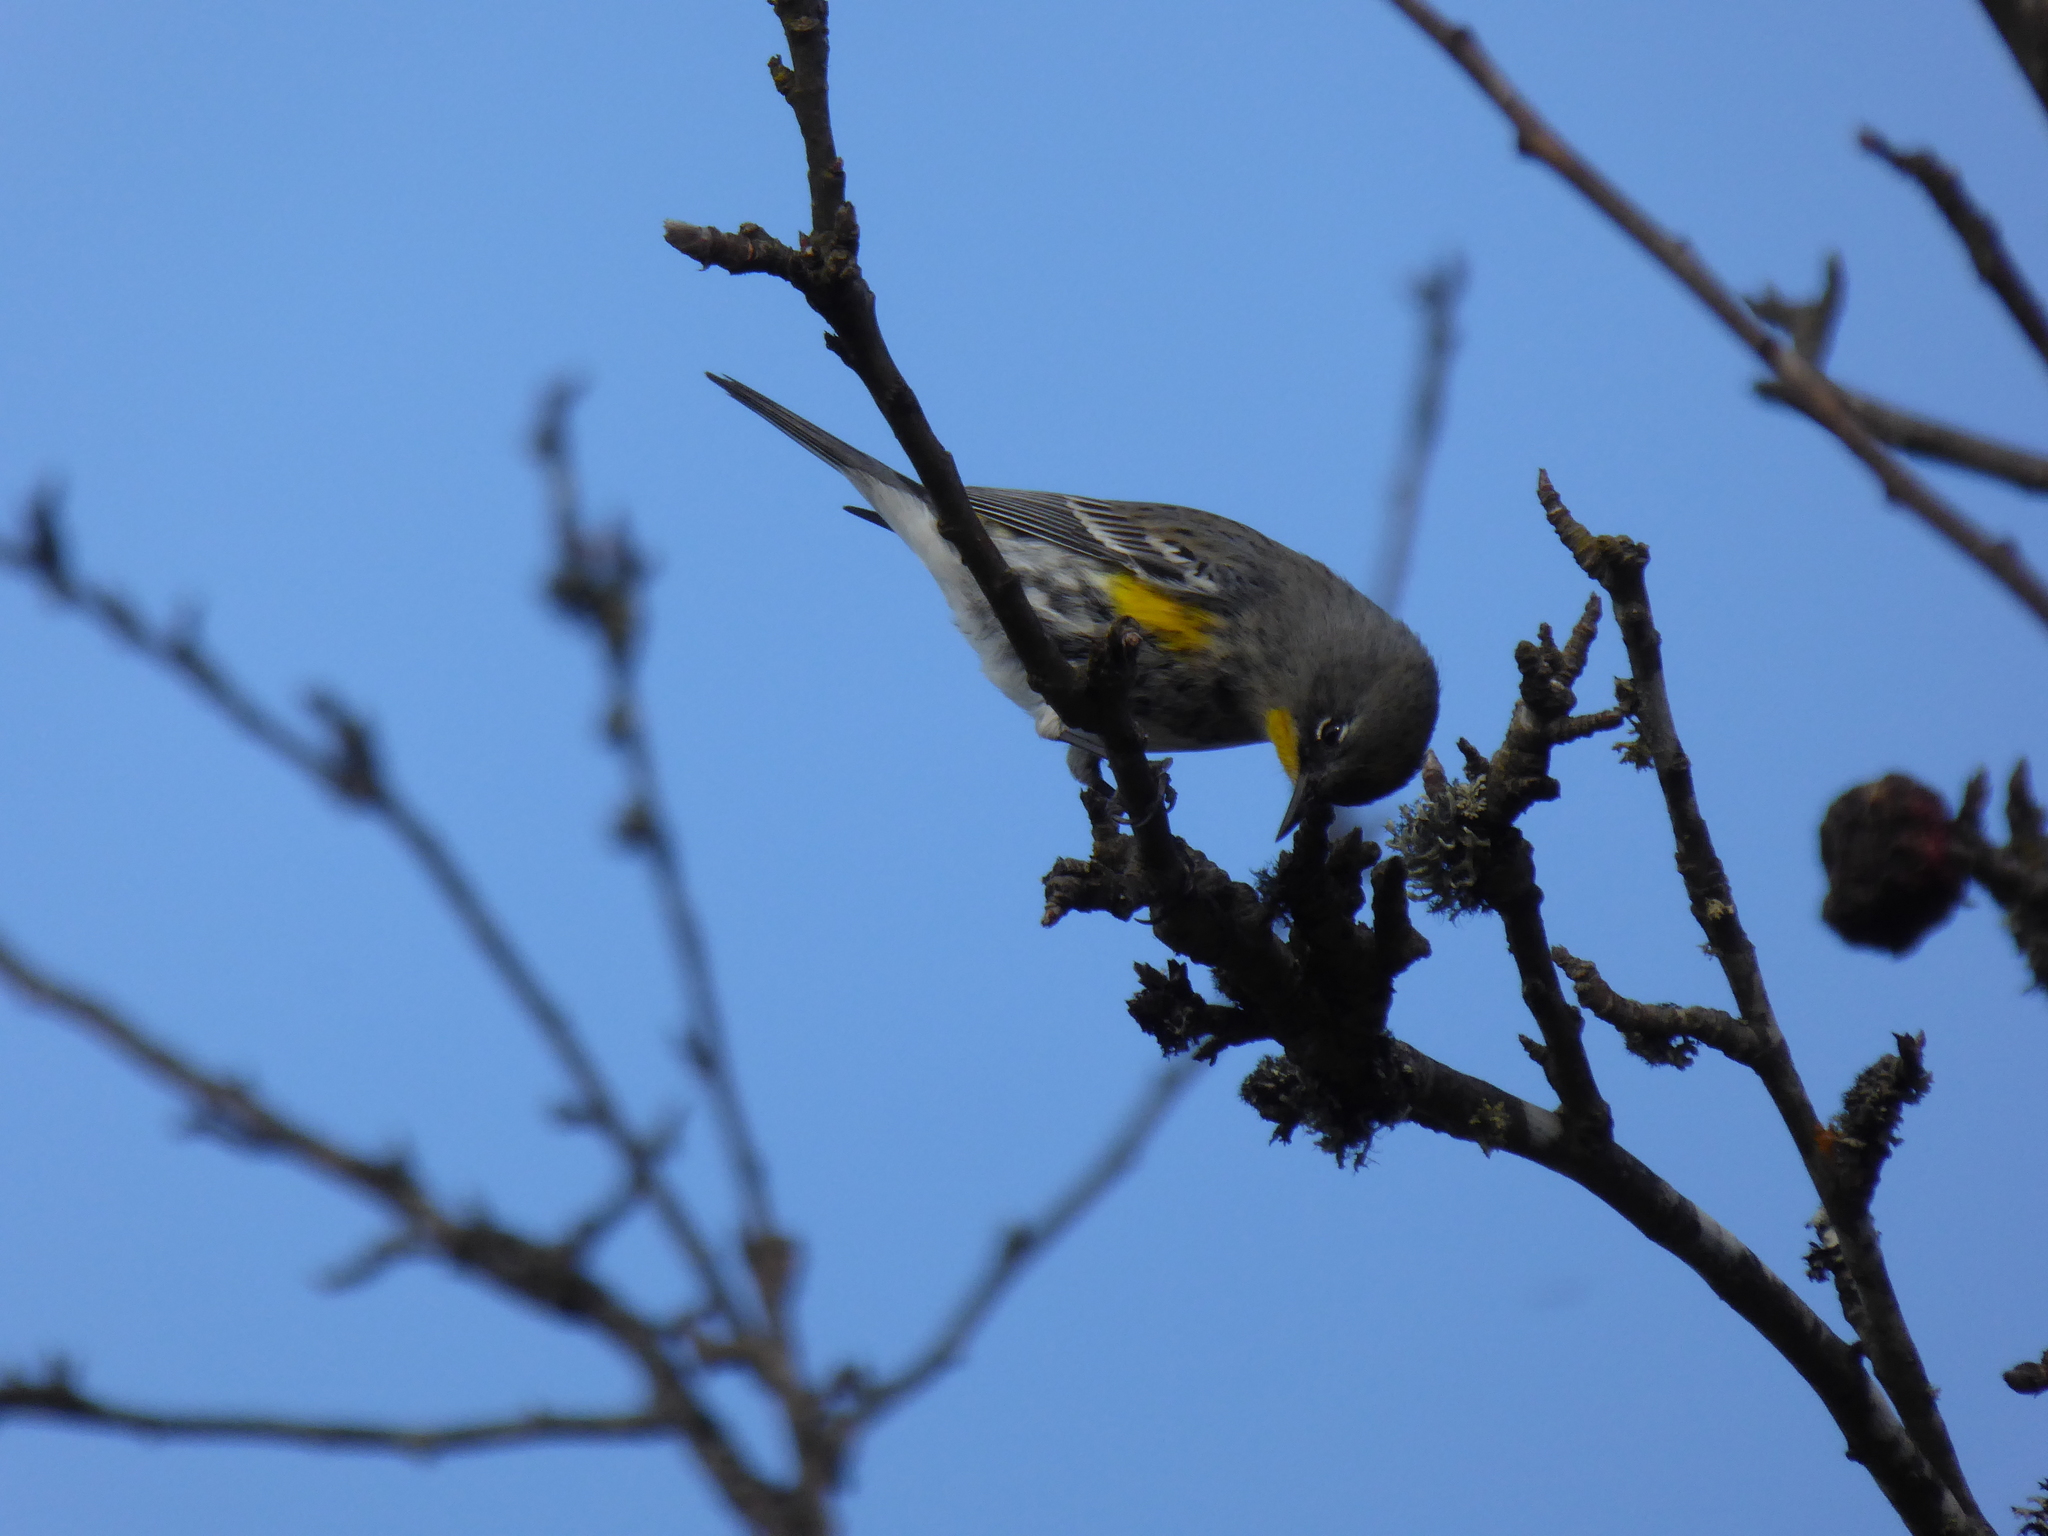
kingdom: Animalia
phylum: Chordata
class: Aves
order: Passeriformes
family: Parulidae
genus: Setophaga
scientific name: Setophaga auduboni
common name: Audubon's warbler
